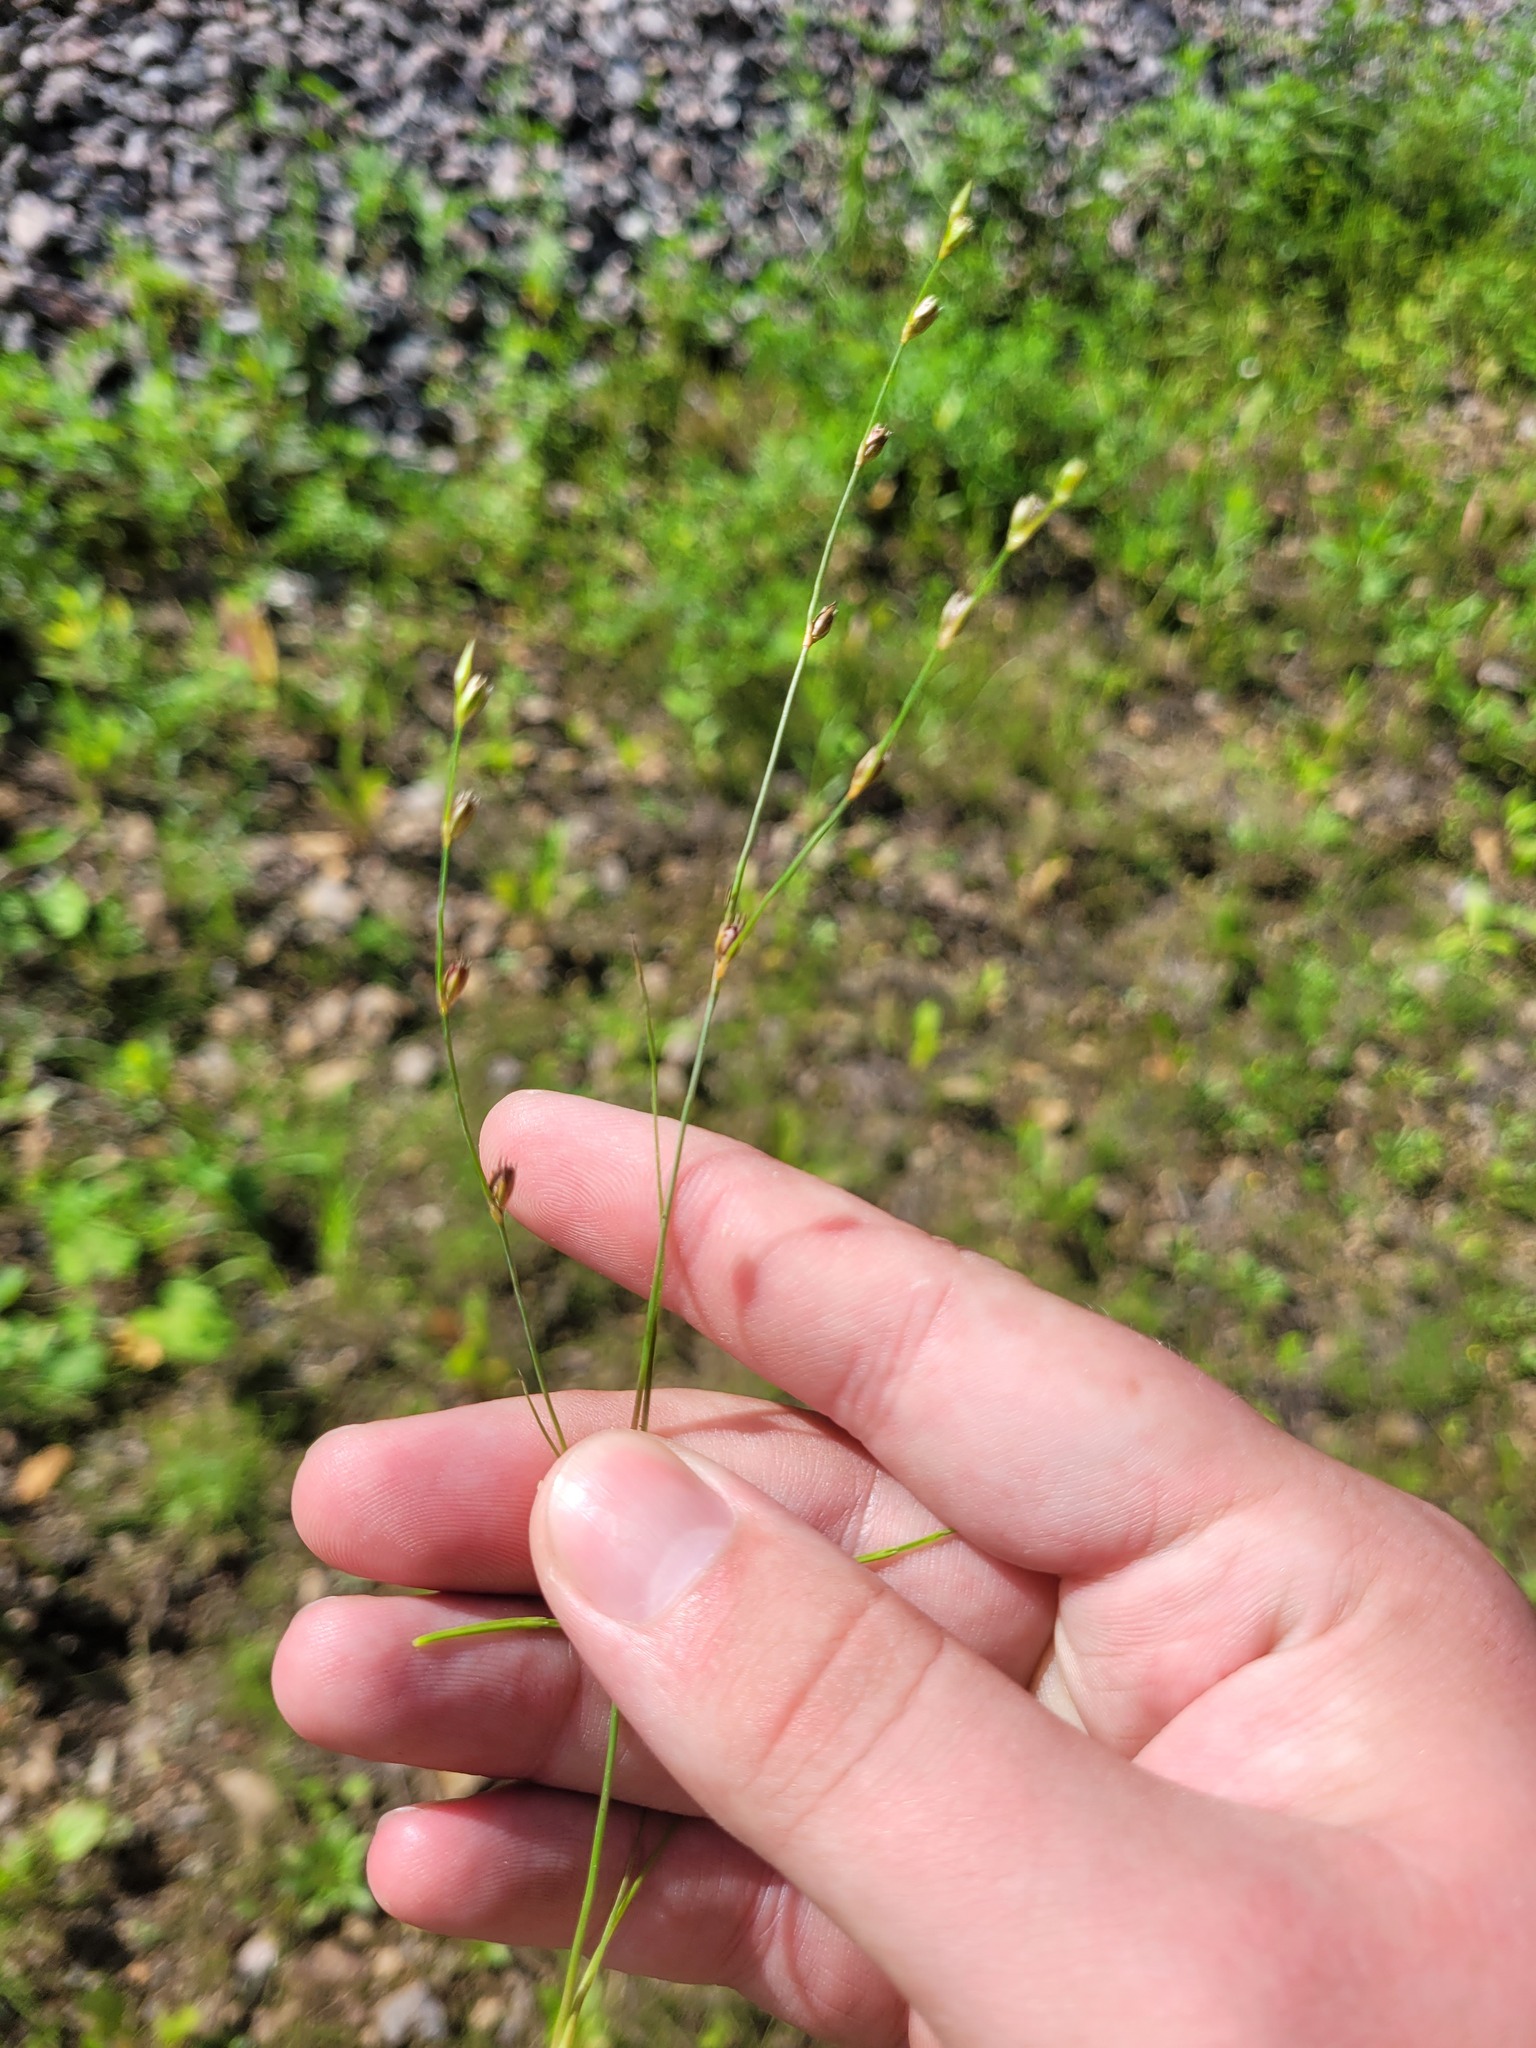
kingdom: Plantae
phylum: Tracheophyta
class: Liliopsida
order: Poales
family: Juncaceae
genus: Juncus
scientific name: Juncus bufonius
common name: Toad rush
